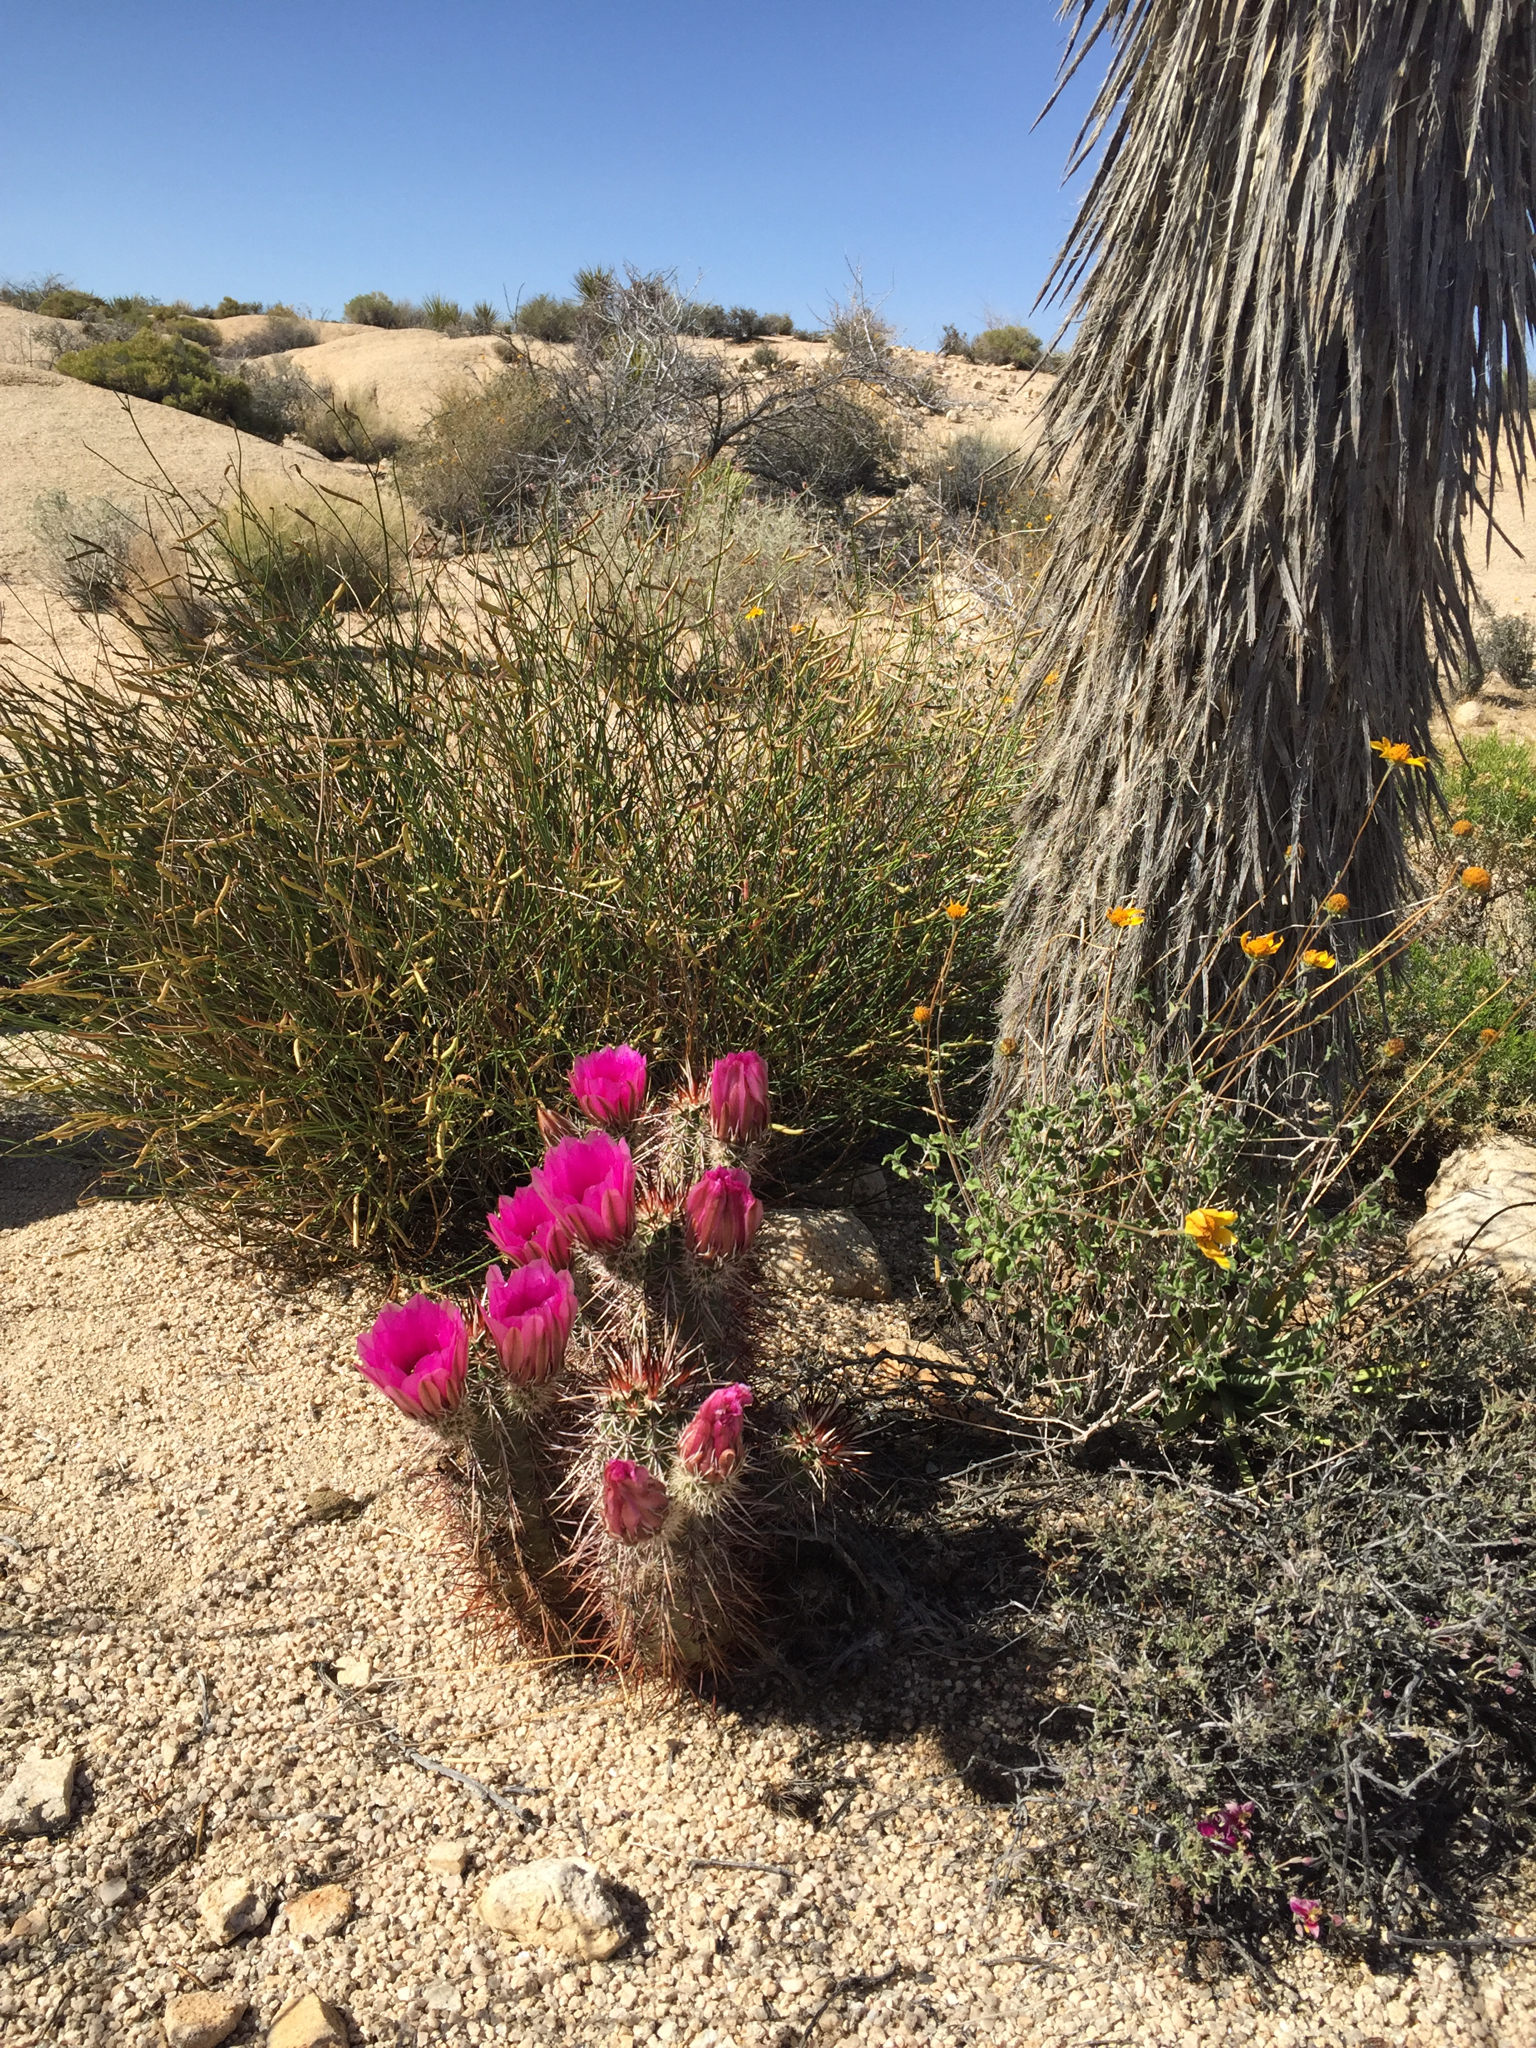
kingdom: Plantae
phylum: Tracheophyta
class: Magnoliopsida
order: Caryophyllales
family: Cactaceae
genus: Echinocereus
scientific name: Echinocereus engelmannii
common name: Engelmann's hedgehog cactus
